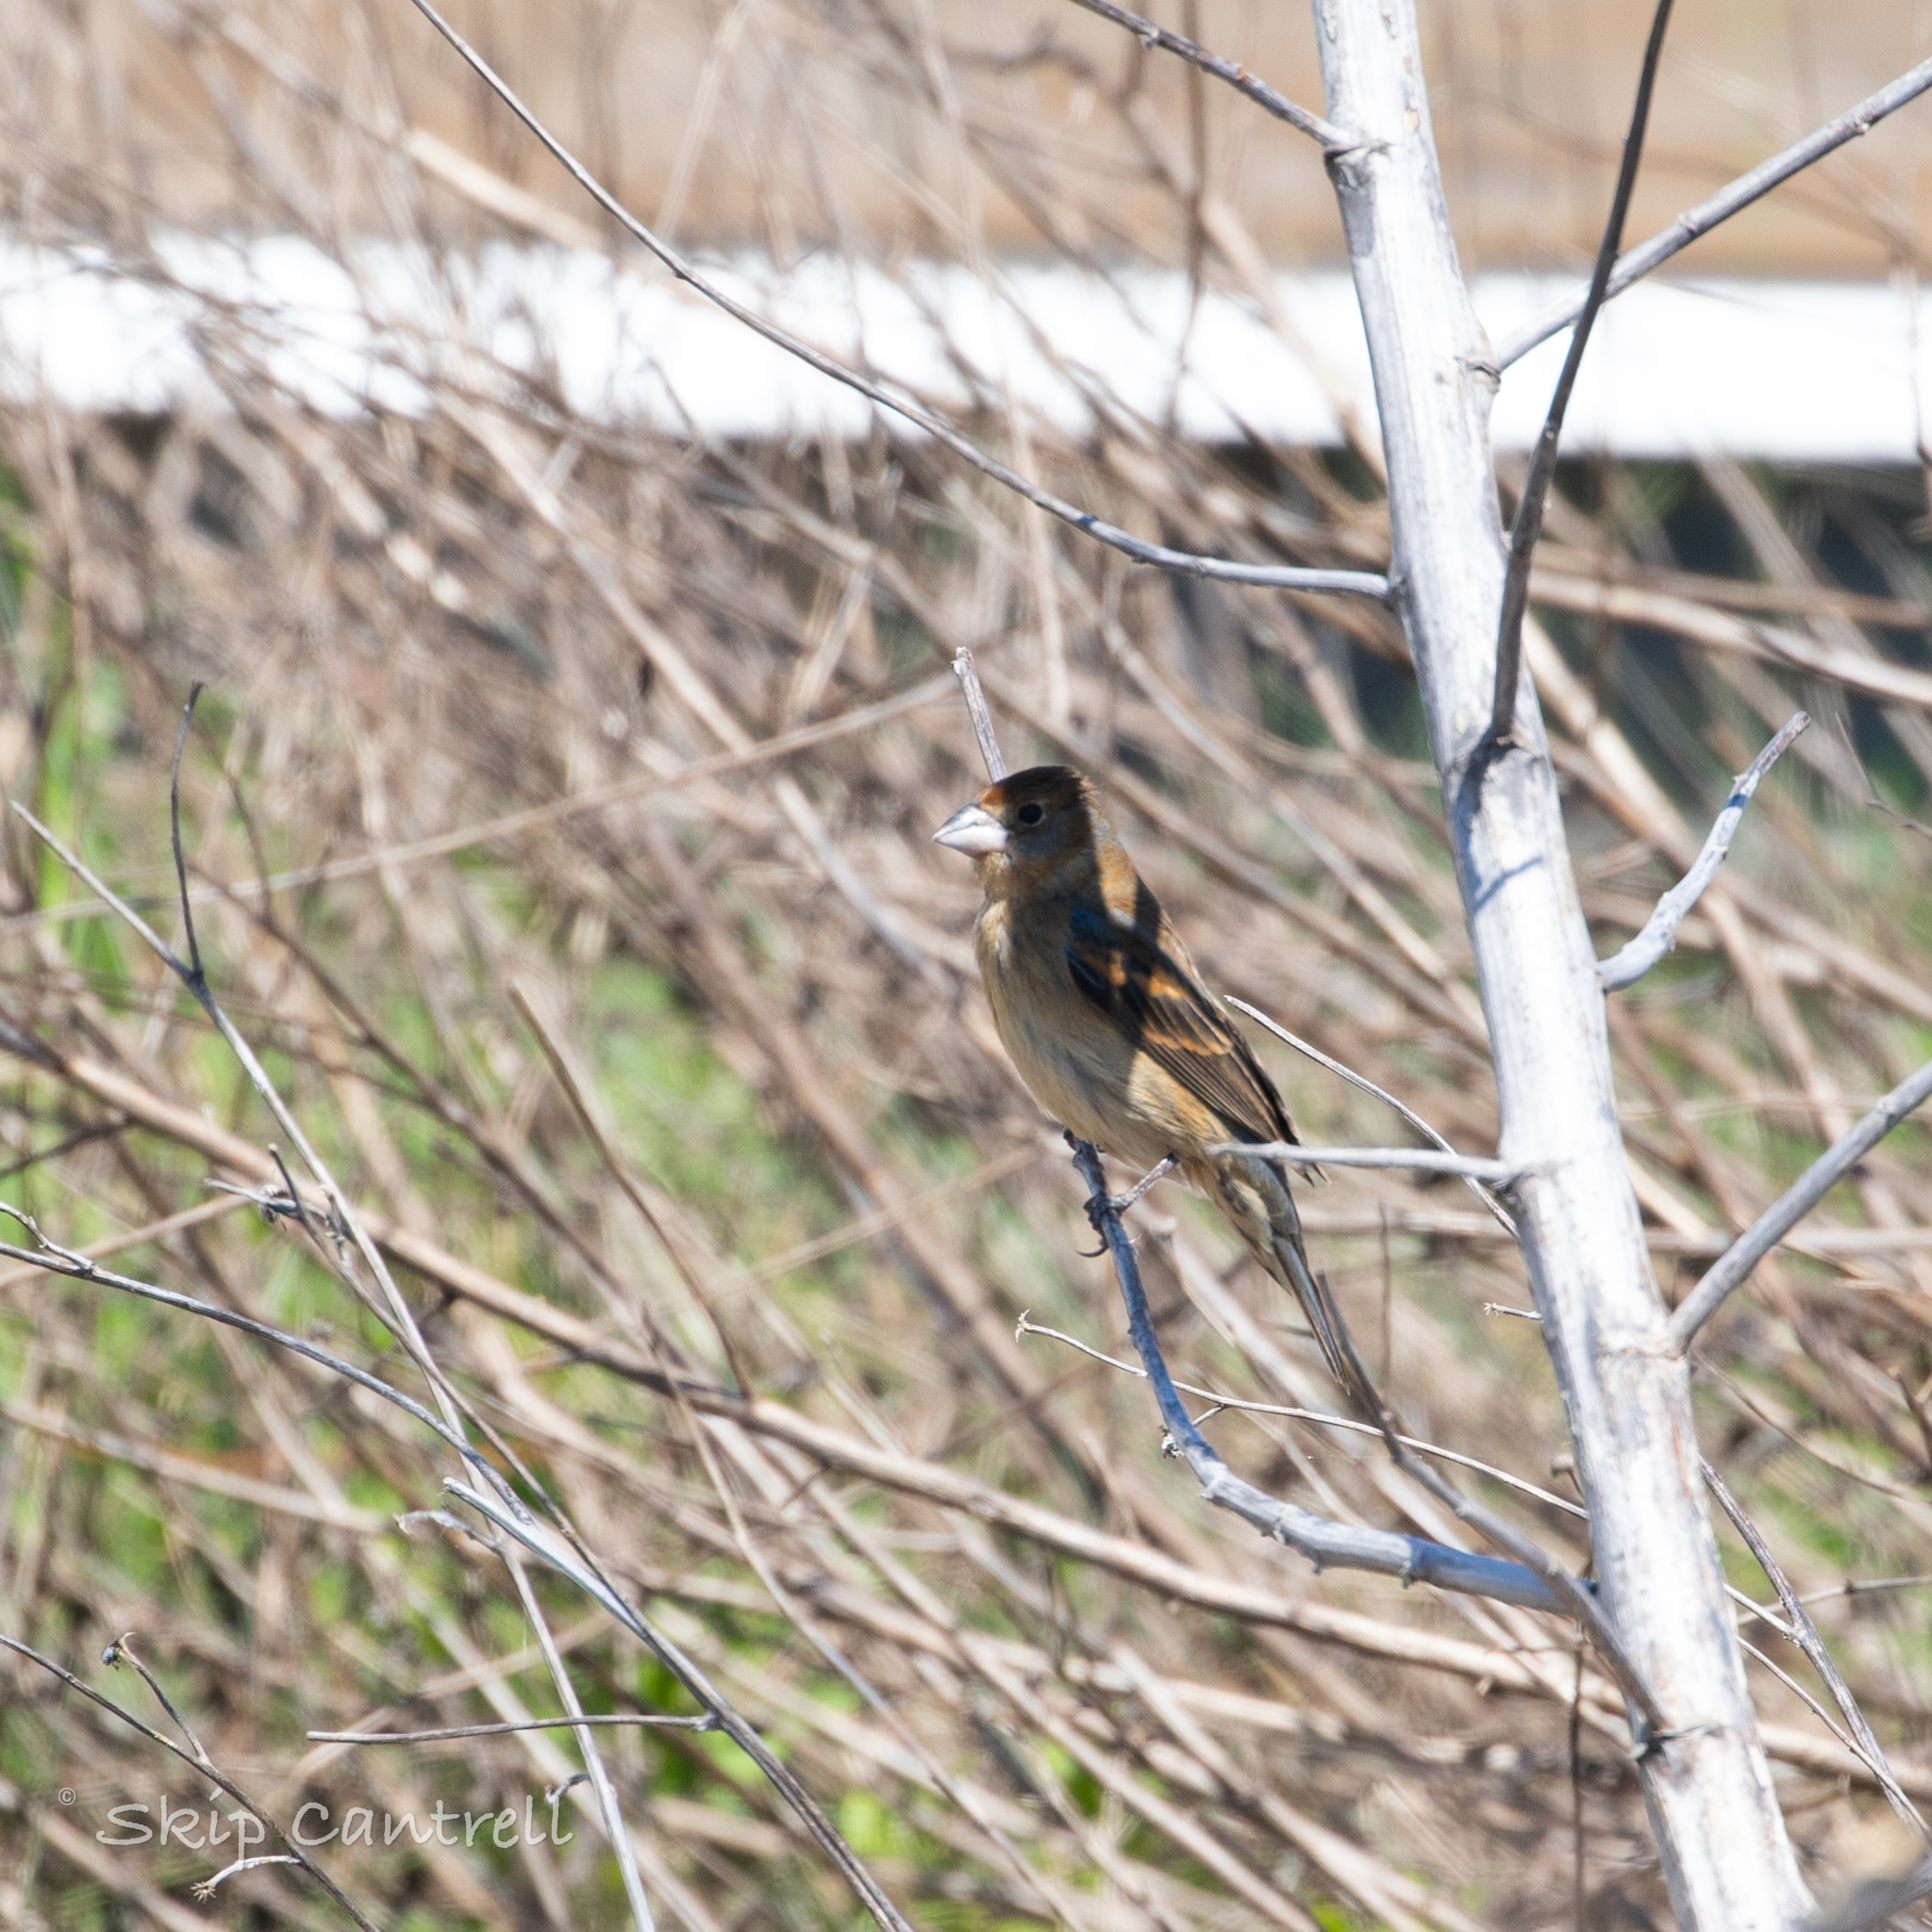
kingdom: Animalia
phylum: Chordata
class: Aves
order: Passeriformes
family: Cardinalidae
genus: Passerina
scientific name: Passerina caerulea
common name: Blue grosbeak
